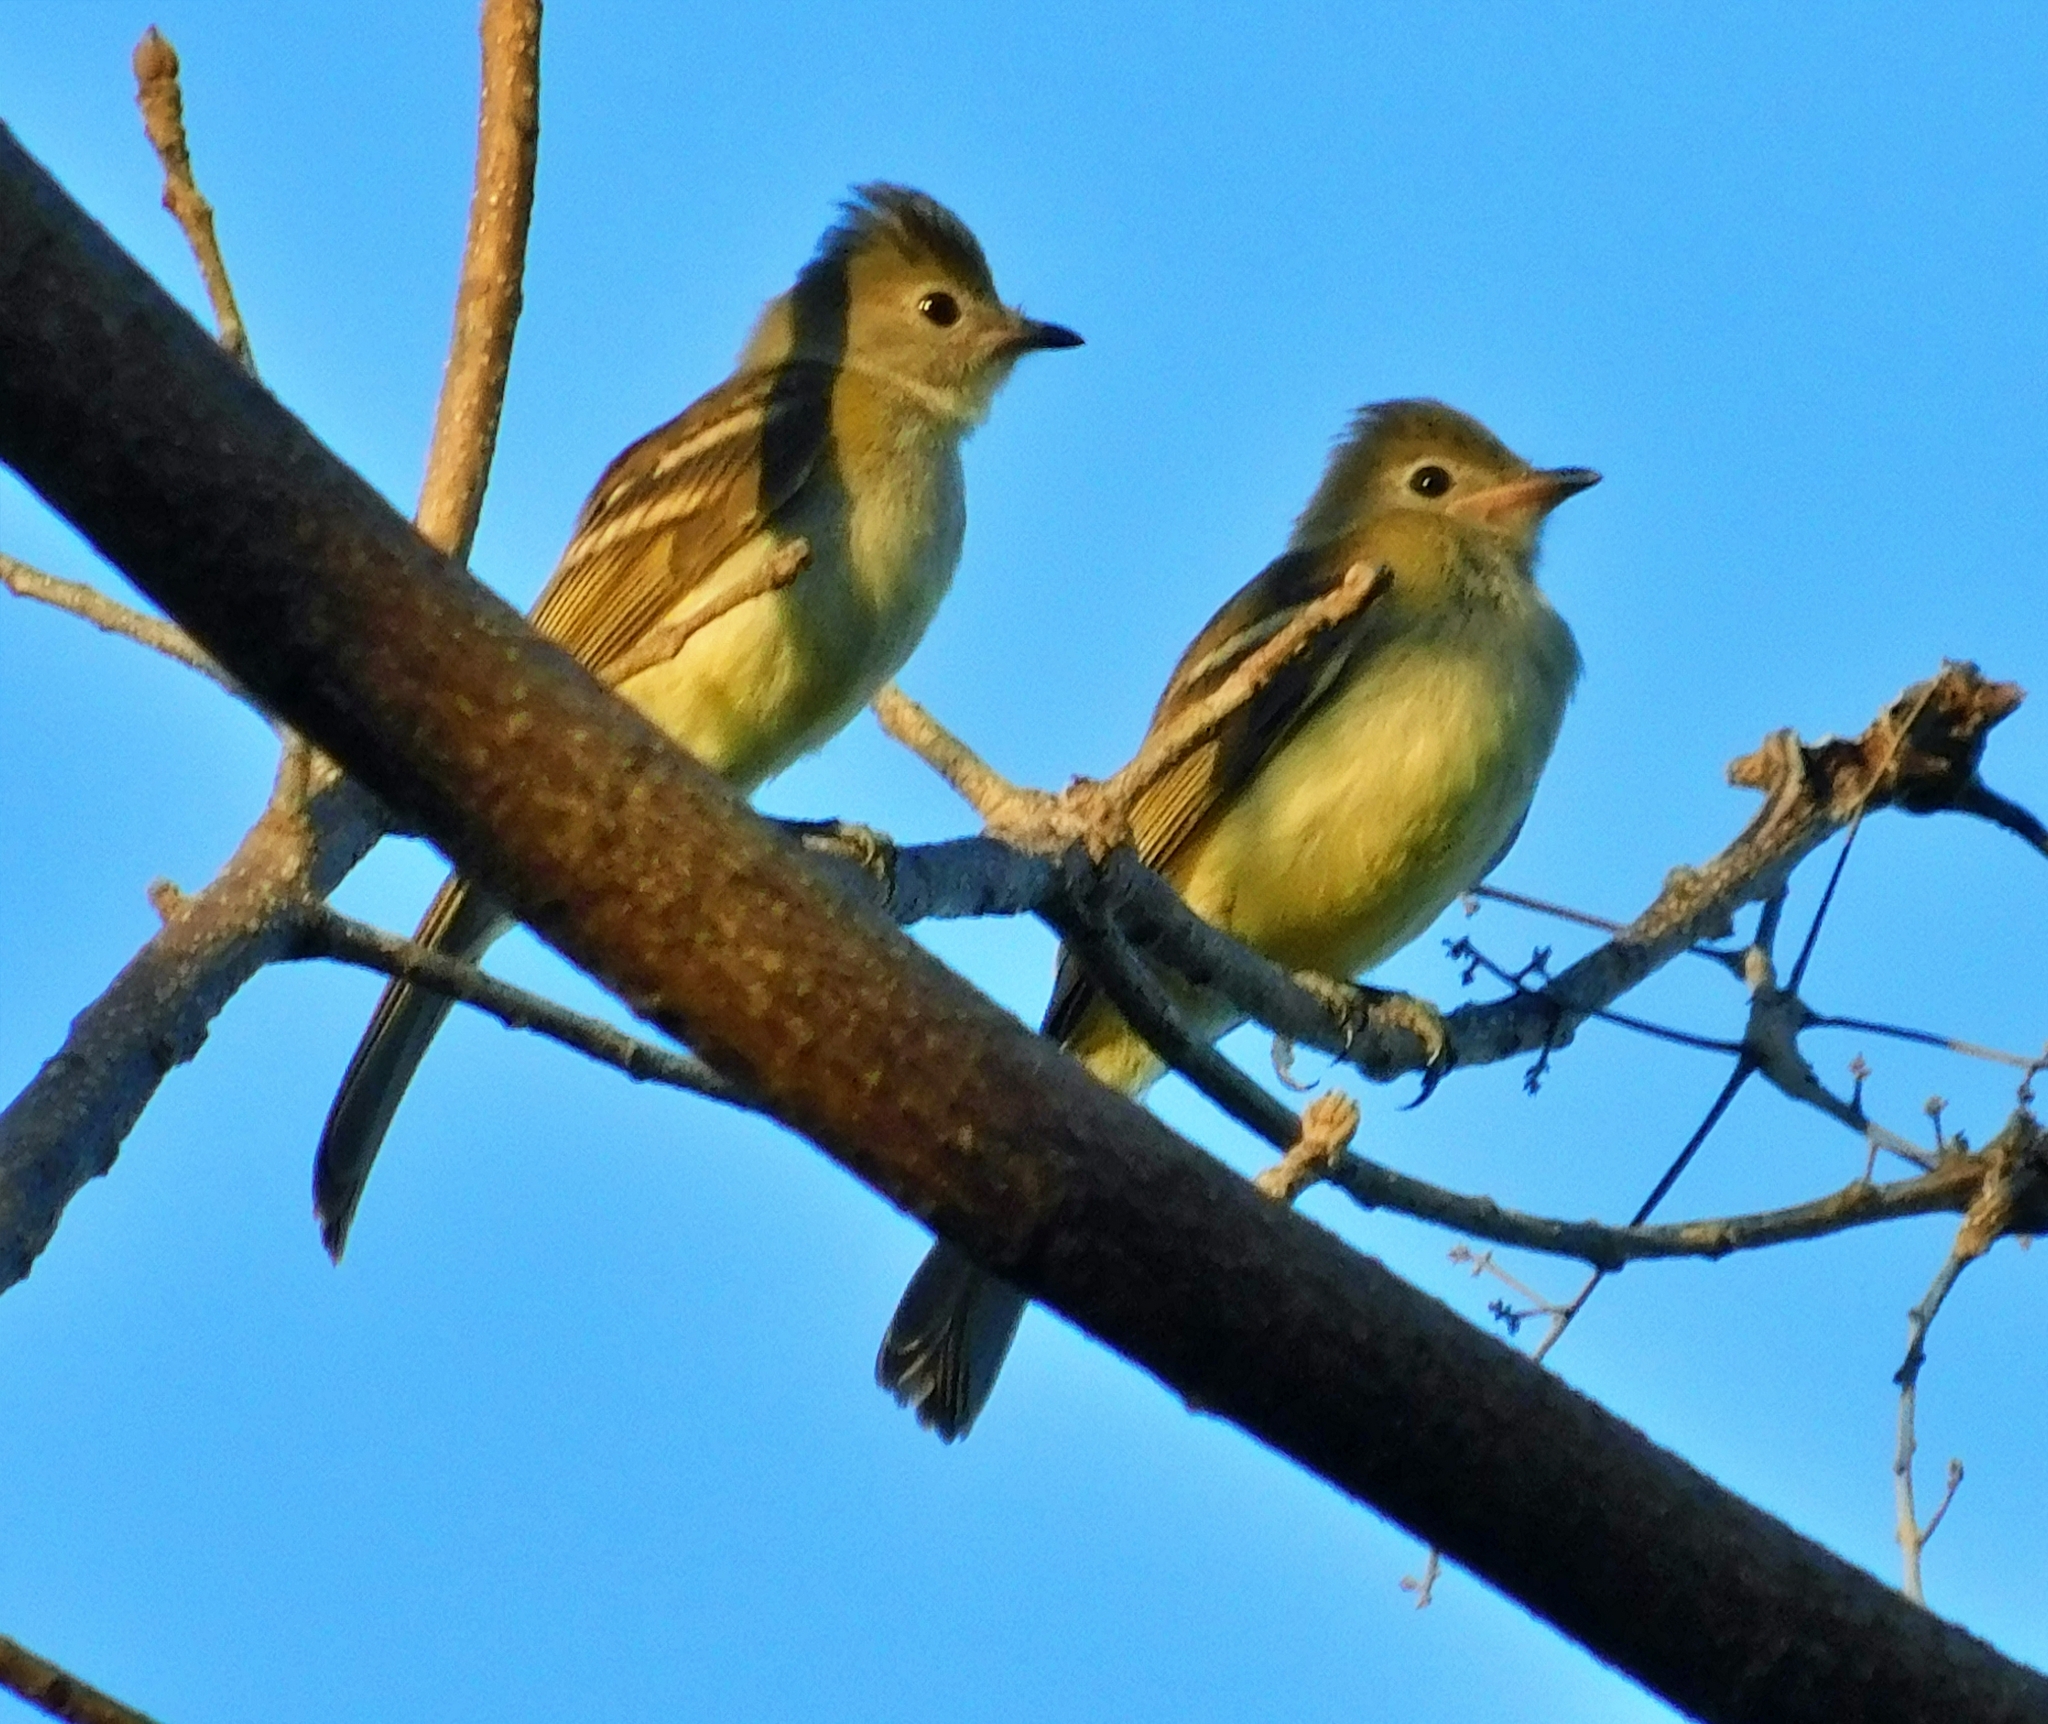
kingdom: Animalia
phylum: Chordata
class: Aves
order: Passeriformes
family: Tyrannidae
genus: Elaenia
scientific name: Elaenia flavogaster
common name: Yellow-bellied elaenia
